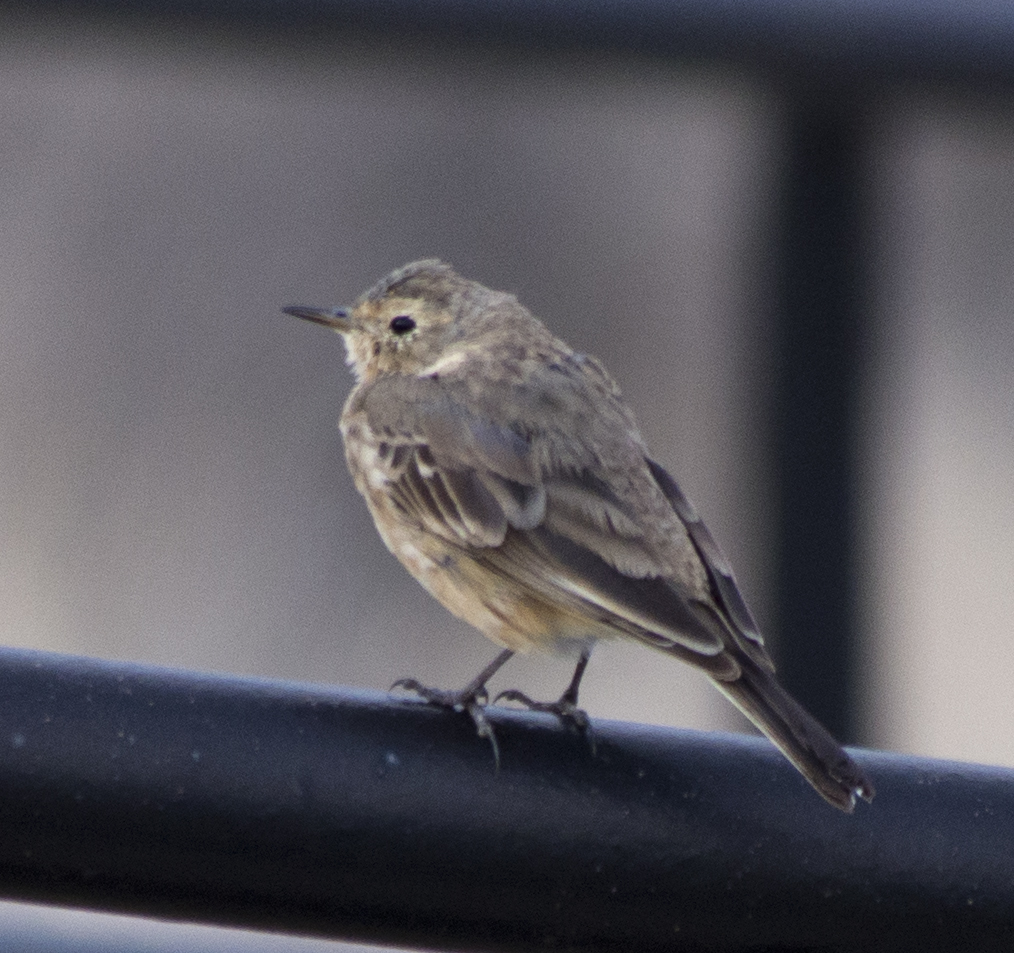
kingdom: Animalia
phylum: Chordata
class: Aves
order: Passeriformes
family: Motacillidae
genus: Anthus
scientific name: Anthus rubescens
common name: Buff-bellied pipit
